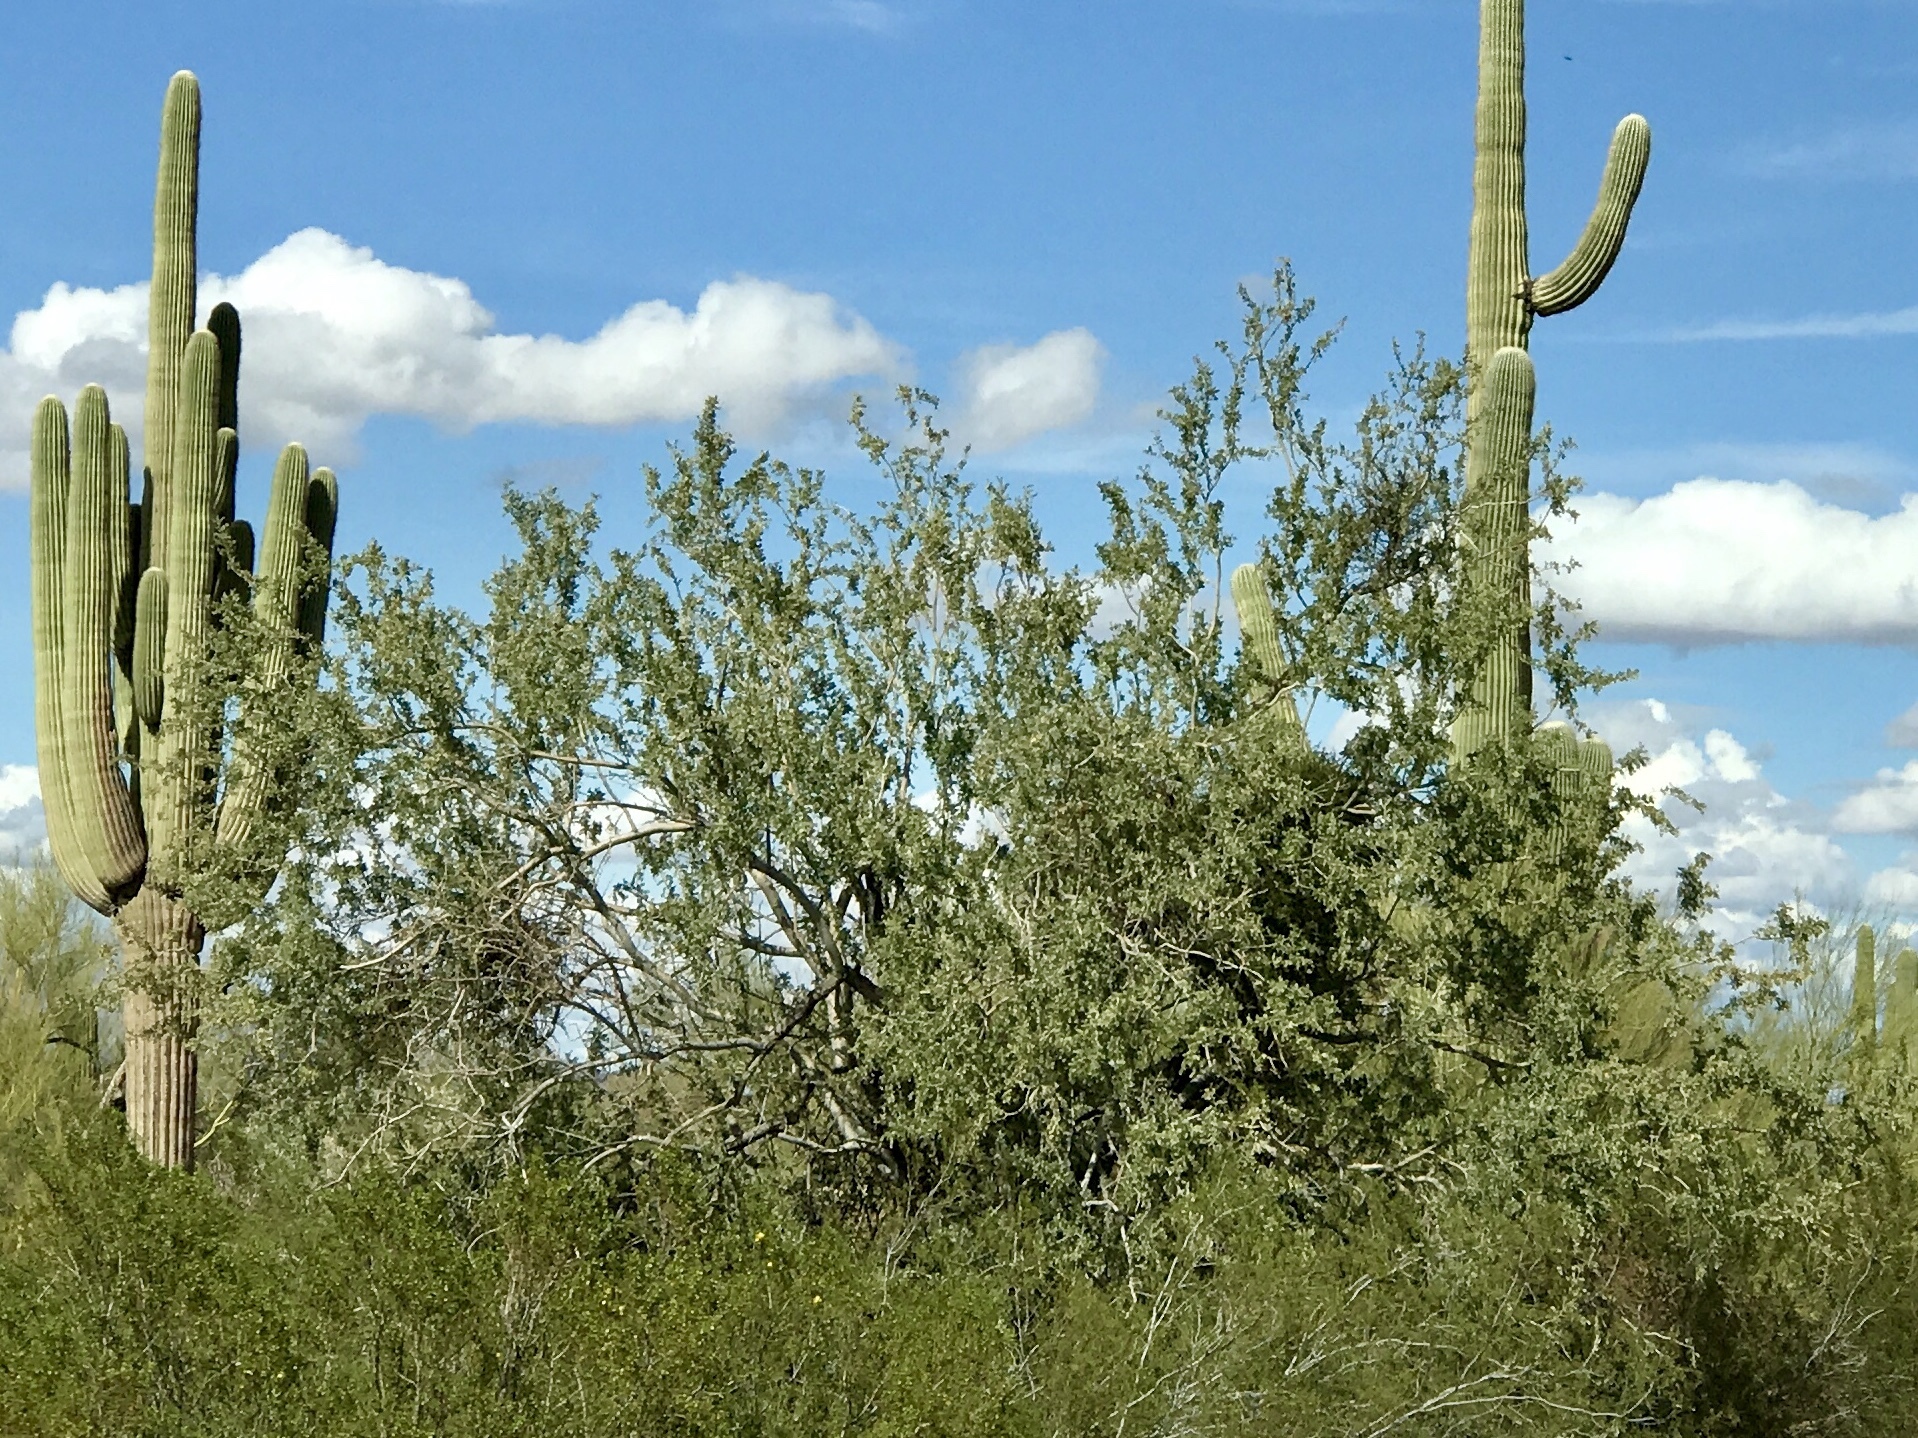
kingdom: Plantae
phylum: Tracheophyta
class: Magnoliopsida
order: Fabales
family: Fabaceae
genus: Olneya
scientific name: Olneya tesota
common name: Desert ironwood
